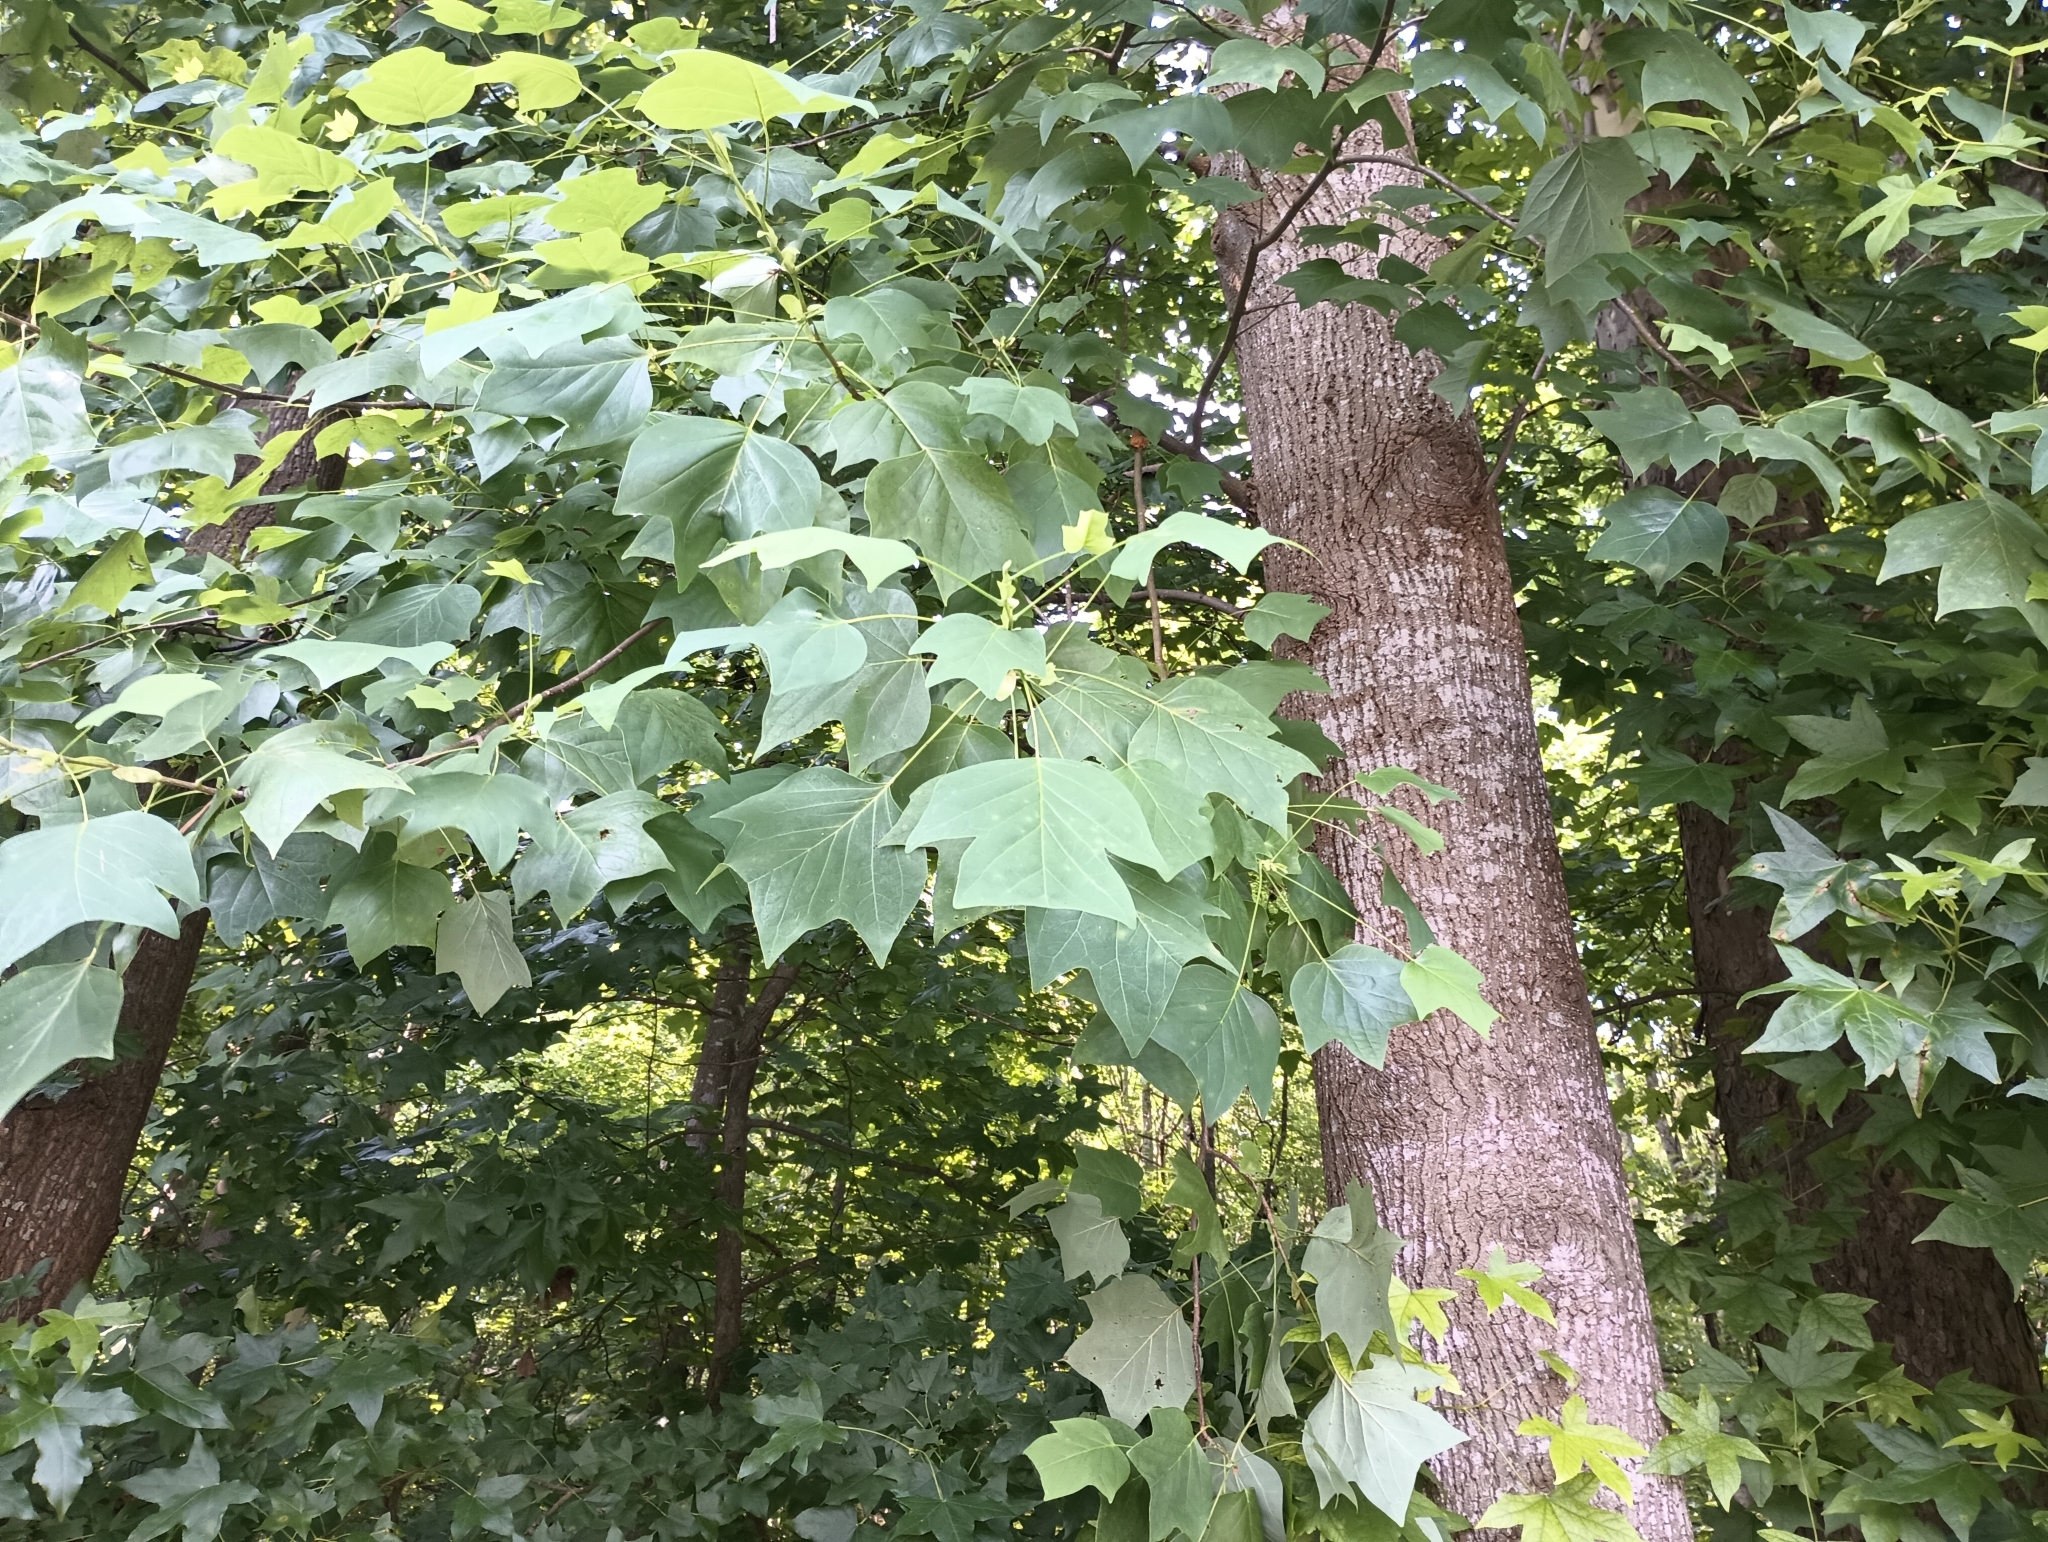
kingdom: Plantae
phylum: Tracheophyta
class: Magnoliopsida
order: Magnoliales
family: Magnoliaceae
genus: Liriodendron
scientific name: Liriodendron tulipifera
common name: Tulip tree
